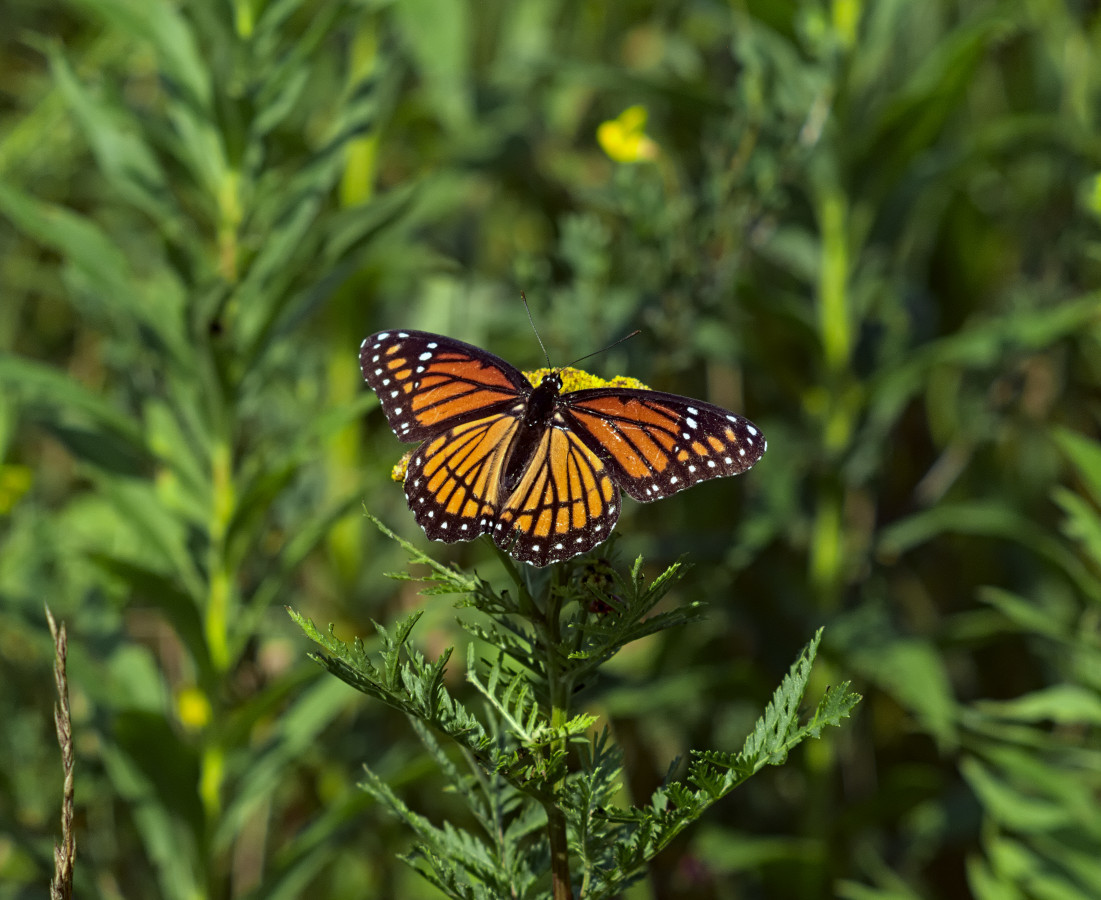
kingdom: Animalia
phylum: Arthropoda
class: Insecta
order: Lepidoptera
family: Nymphalidae
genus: Limenitis
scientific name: Limenitis archippus
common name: Viceroy
